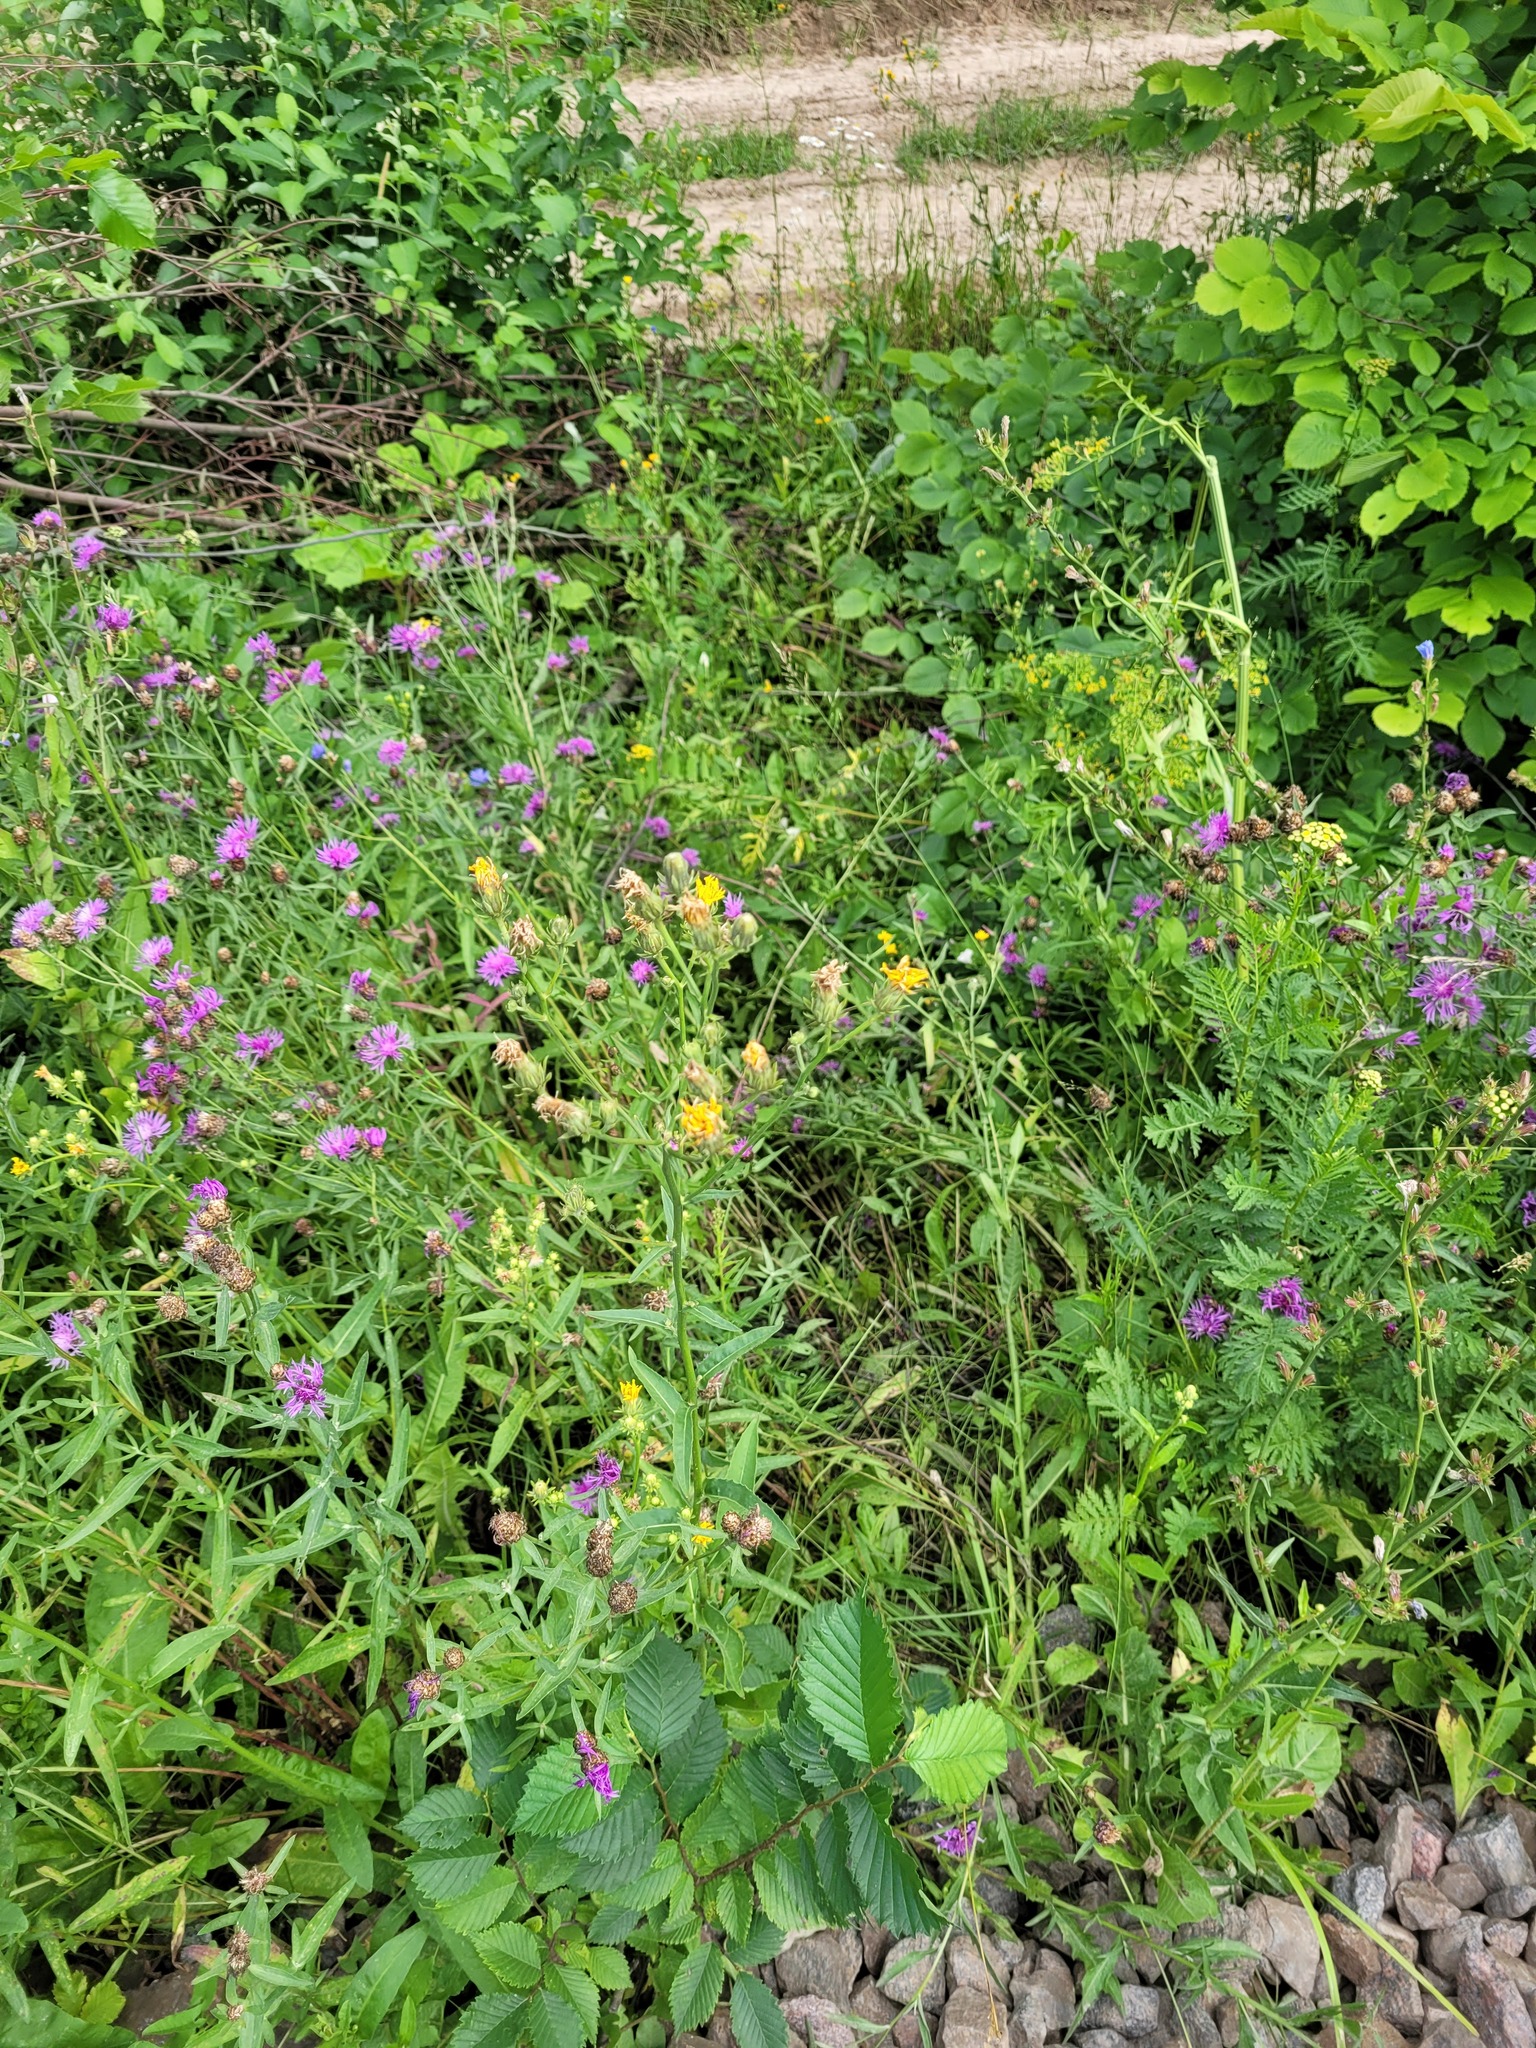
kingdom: Plantae
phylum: Tracheophyta
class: Magnoliopsida
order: Asterales
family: Asteraceae
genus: Picris
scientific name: Picris hieracioides
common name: Hawkweed oxtongue
